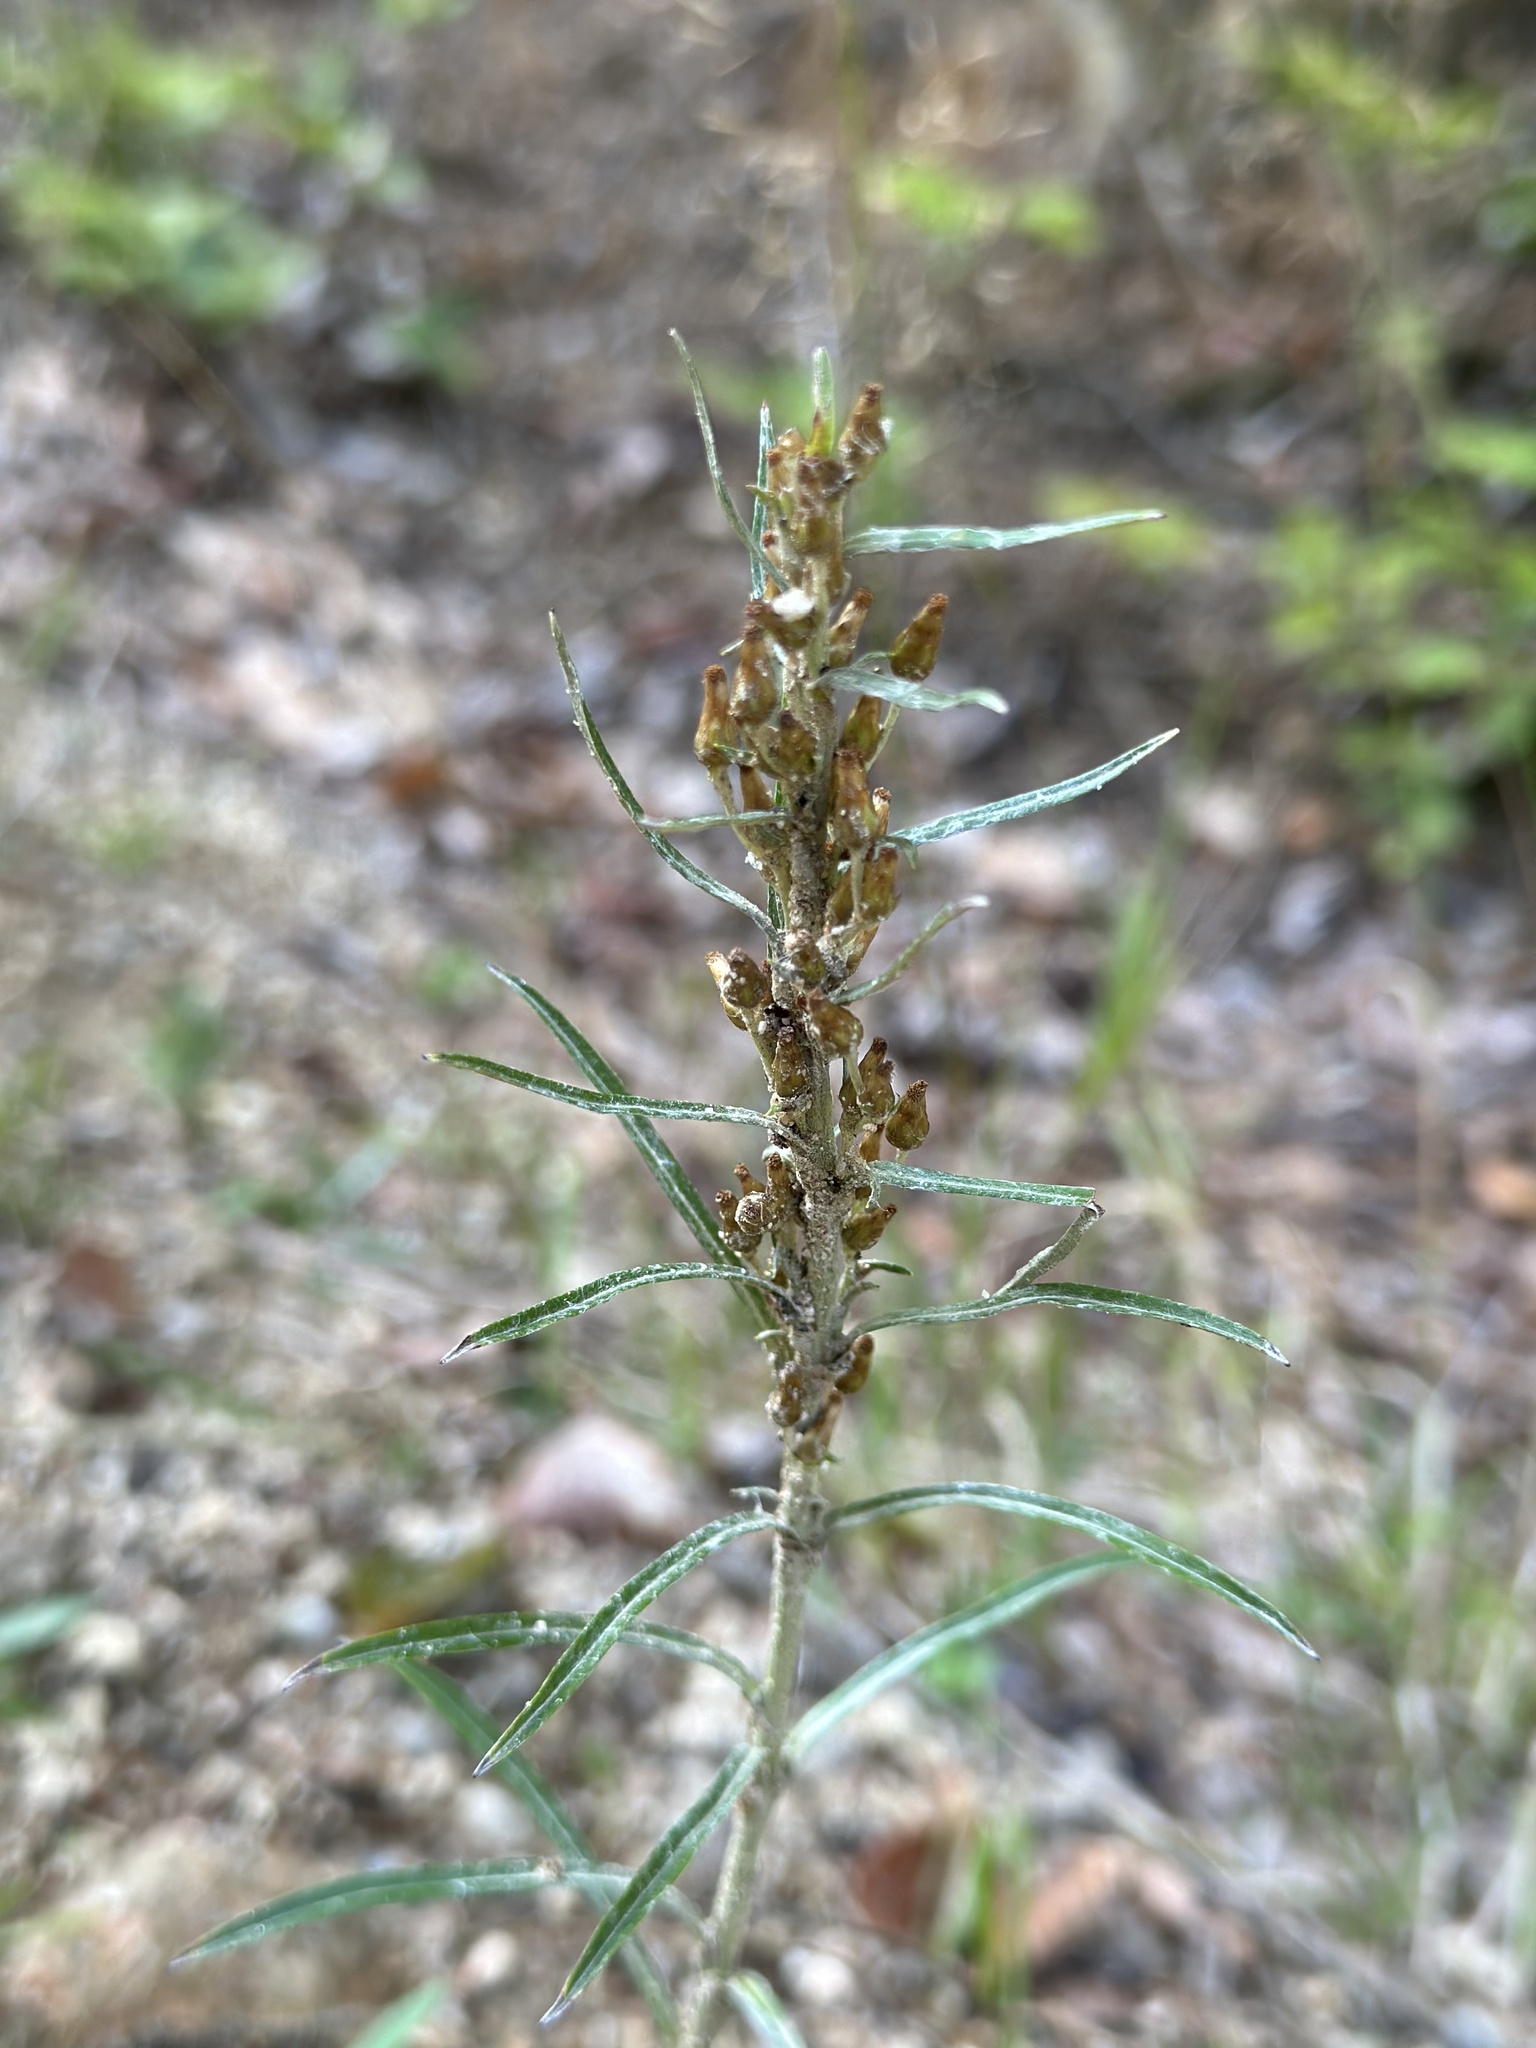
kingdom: Plantae
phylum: Tracheophyta
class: Magnoliopsida
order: Asterales
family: Asteraceae
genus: Omalotheca
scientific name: Omalotheca sylvatica
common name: Heath cudweed
